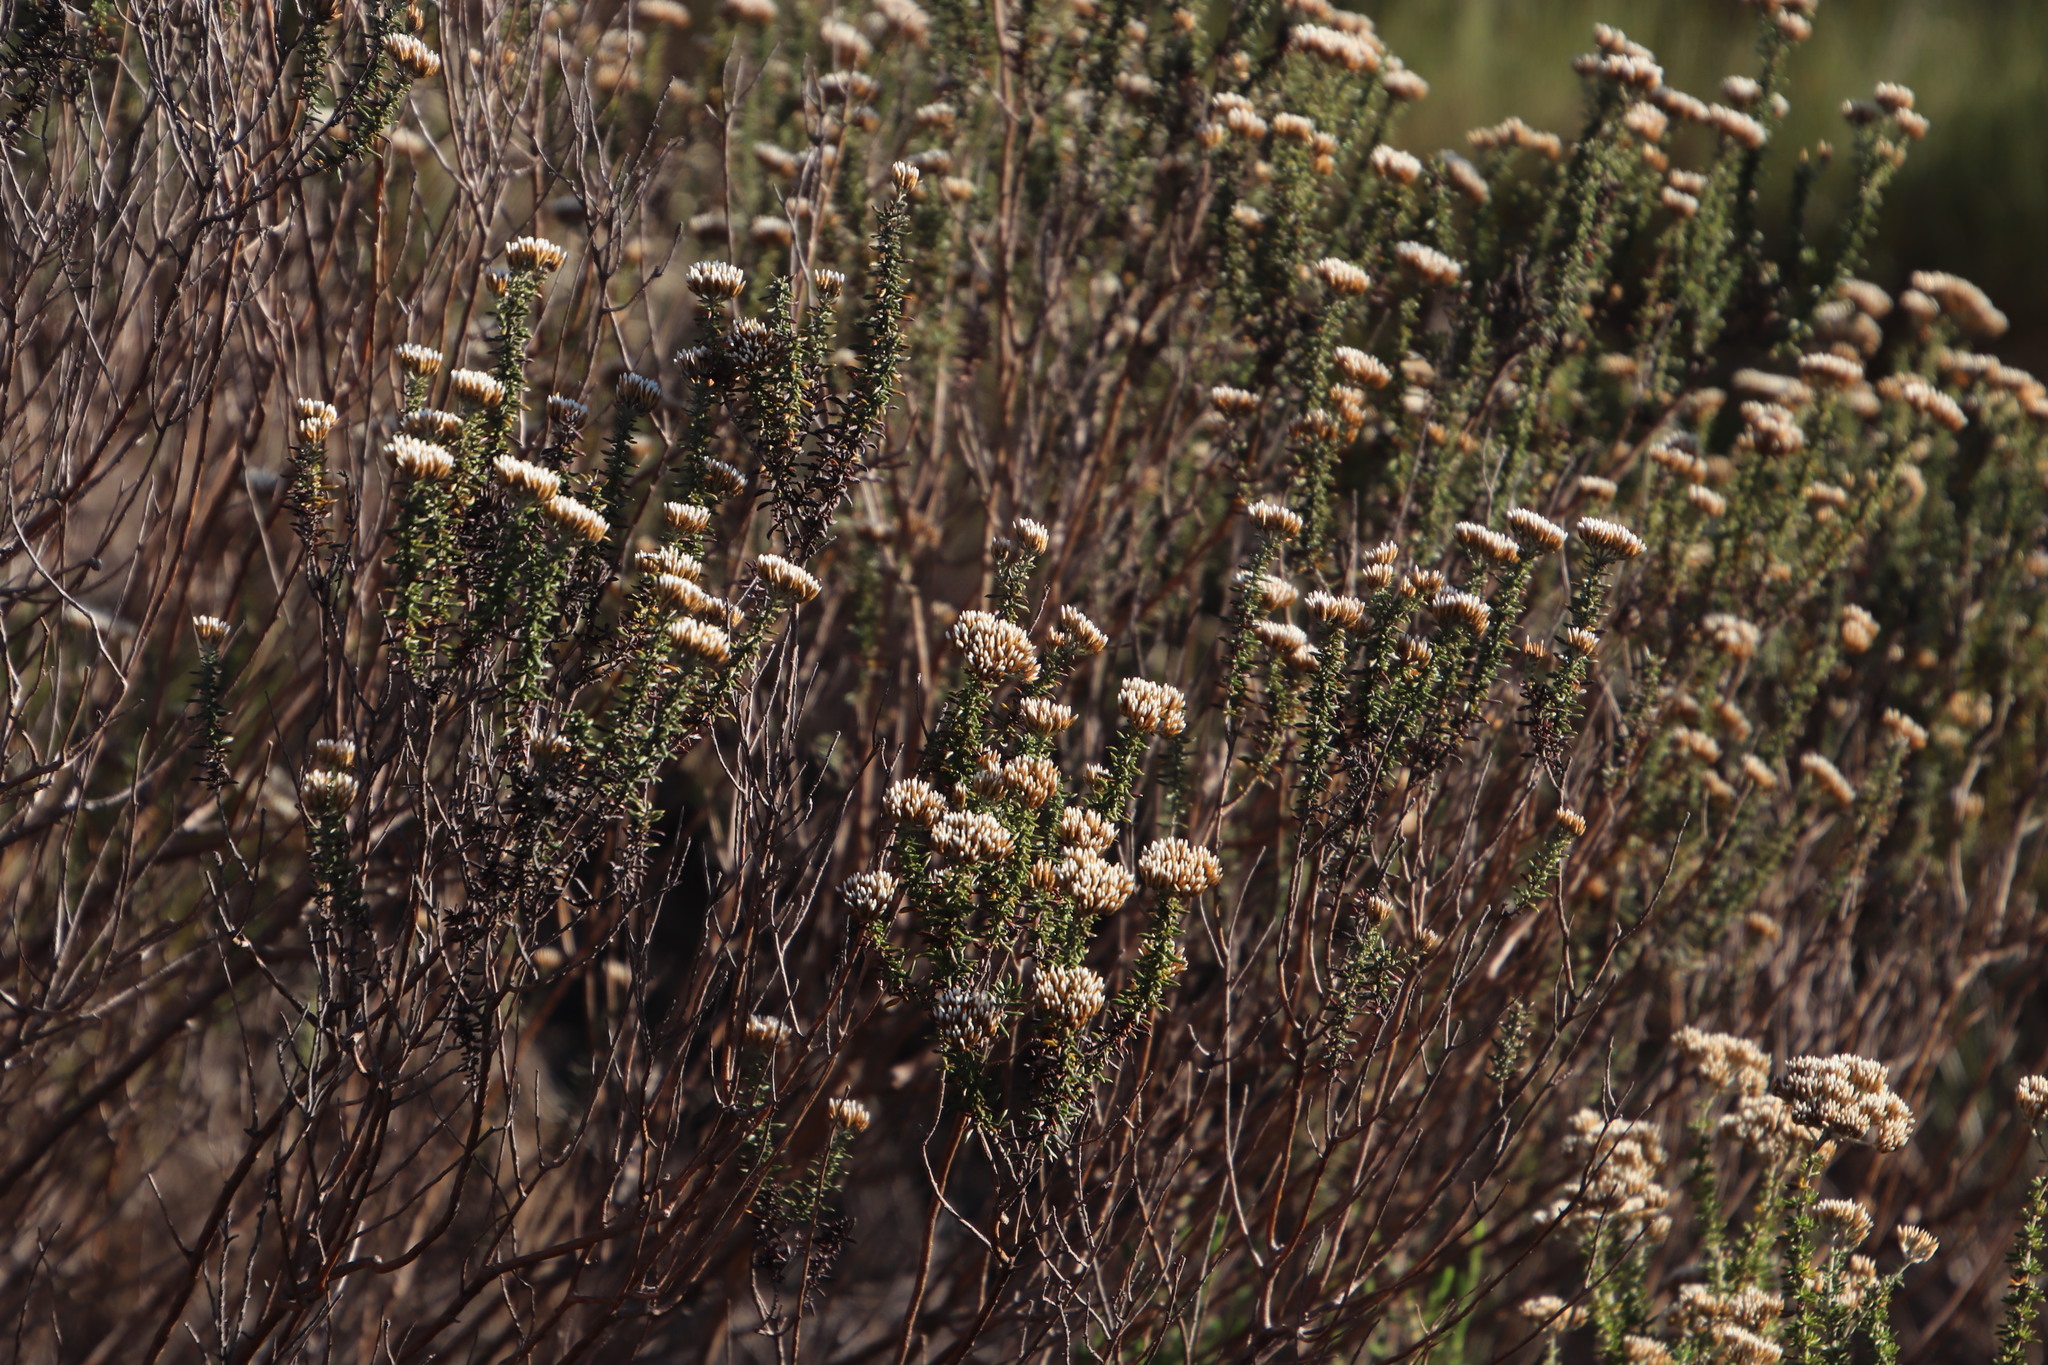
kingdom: Plantae
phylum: Tracheophyta
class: Magnoliopsida
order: Asterales
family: Asteraceae
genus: Metalasia
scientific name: Metalasia densa
